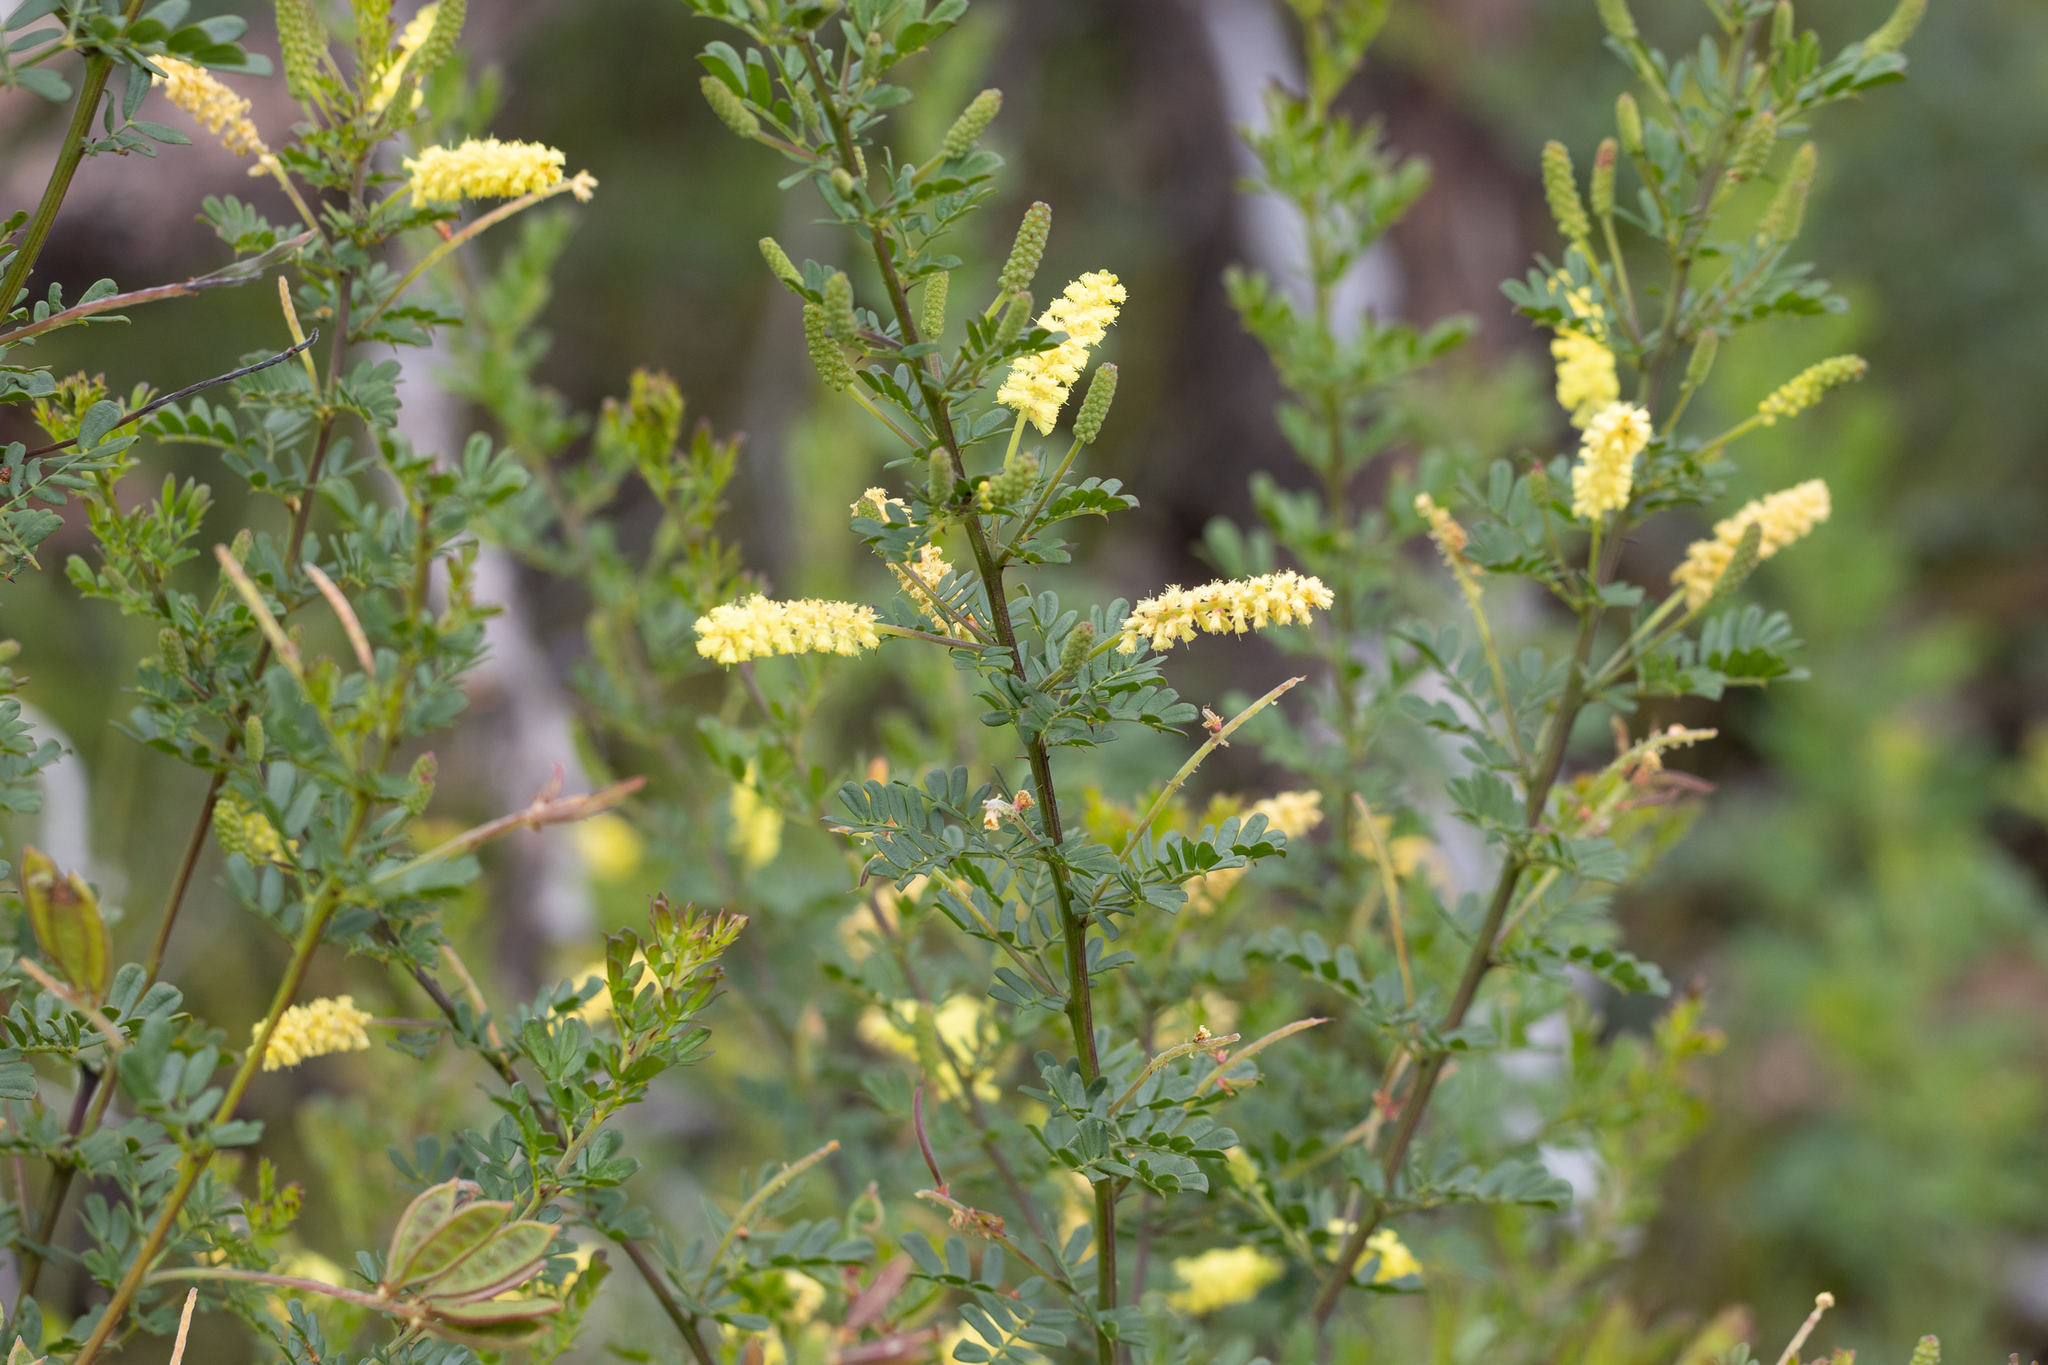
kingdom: Plantae
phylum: Tracheophyta
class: Magnoliopsida
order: Fabales
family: Fabaceae
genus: Acacia
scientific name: Acacia drummondii
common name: Drummond's wattle
